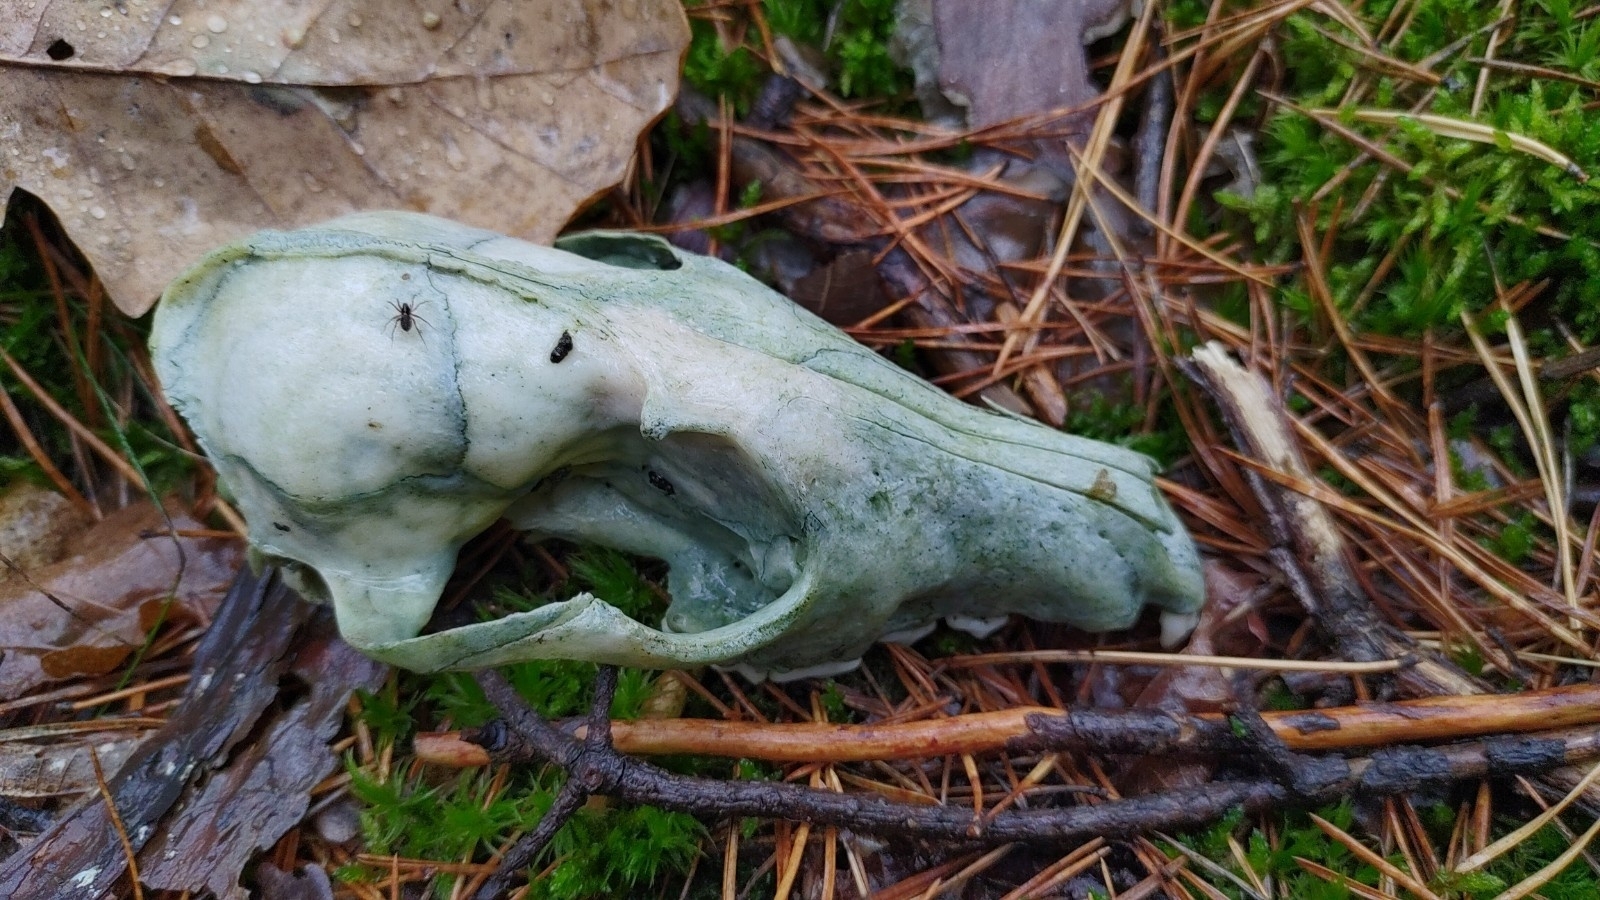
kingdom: Animalia
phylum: Chordata
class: Mammalia
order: Carnivora
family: Canidae
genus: Vulpes
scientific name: Vulpes vulpes
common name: Red fox
